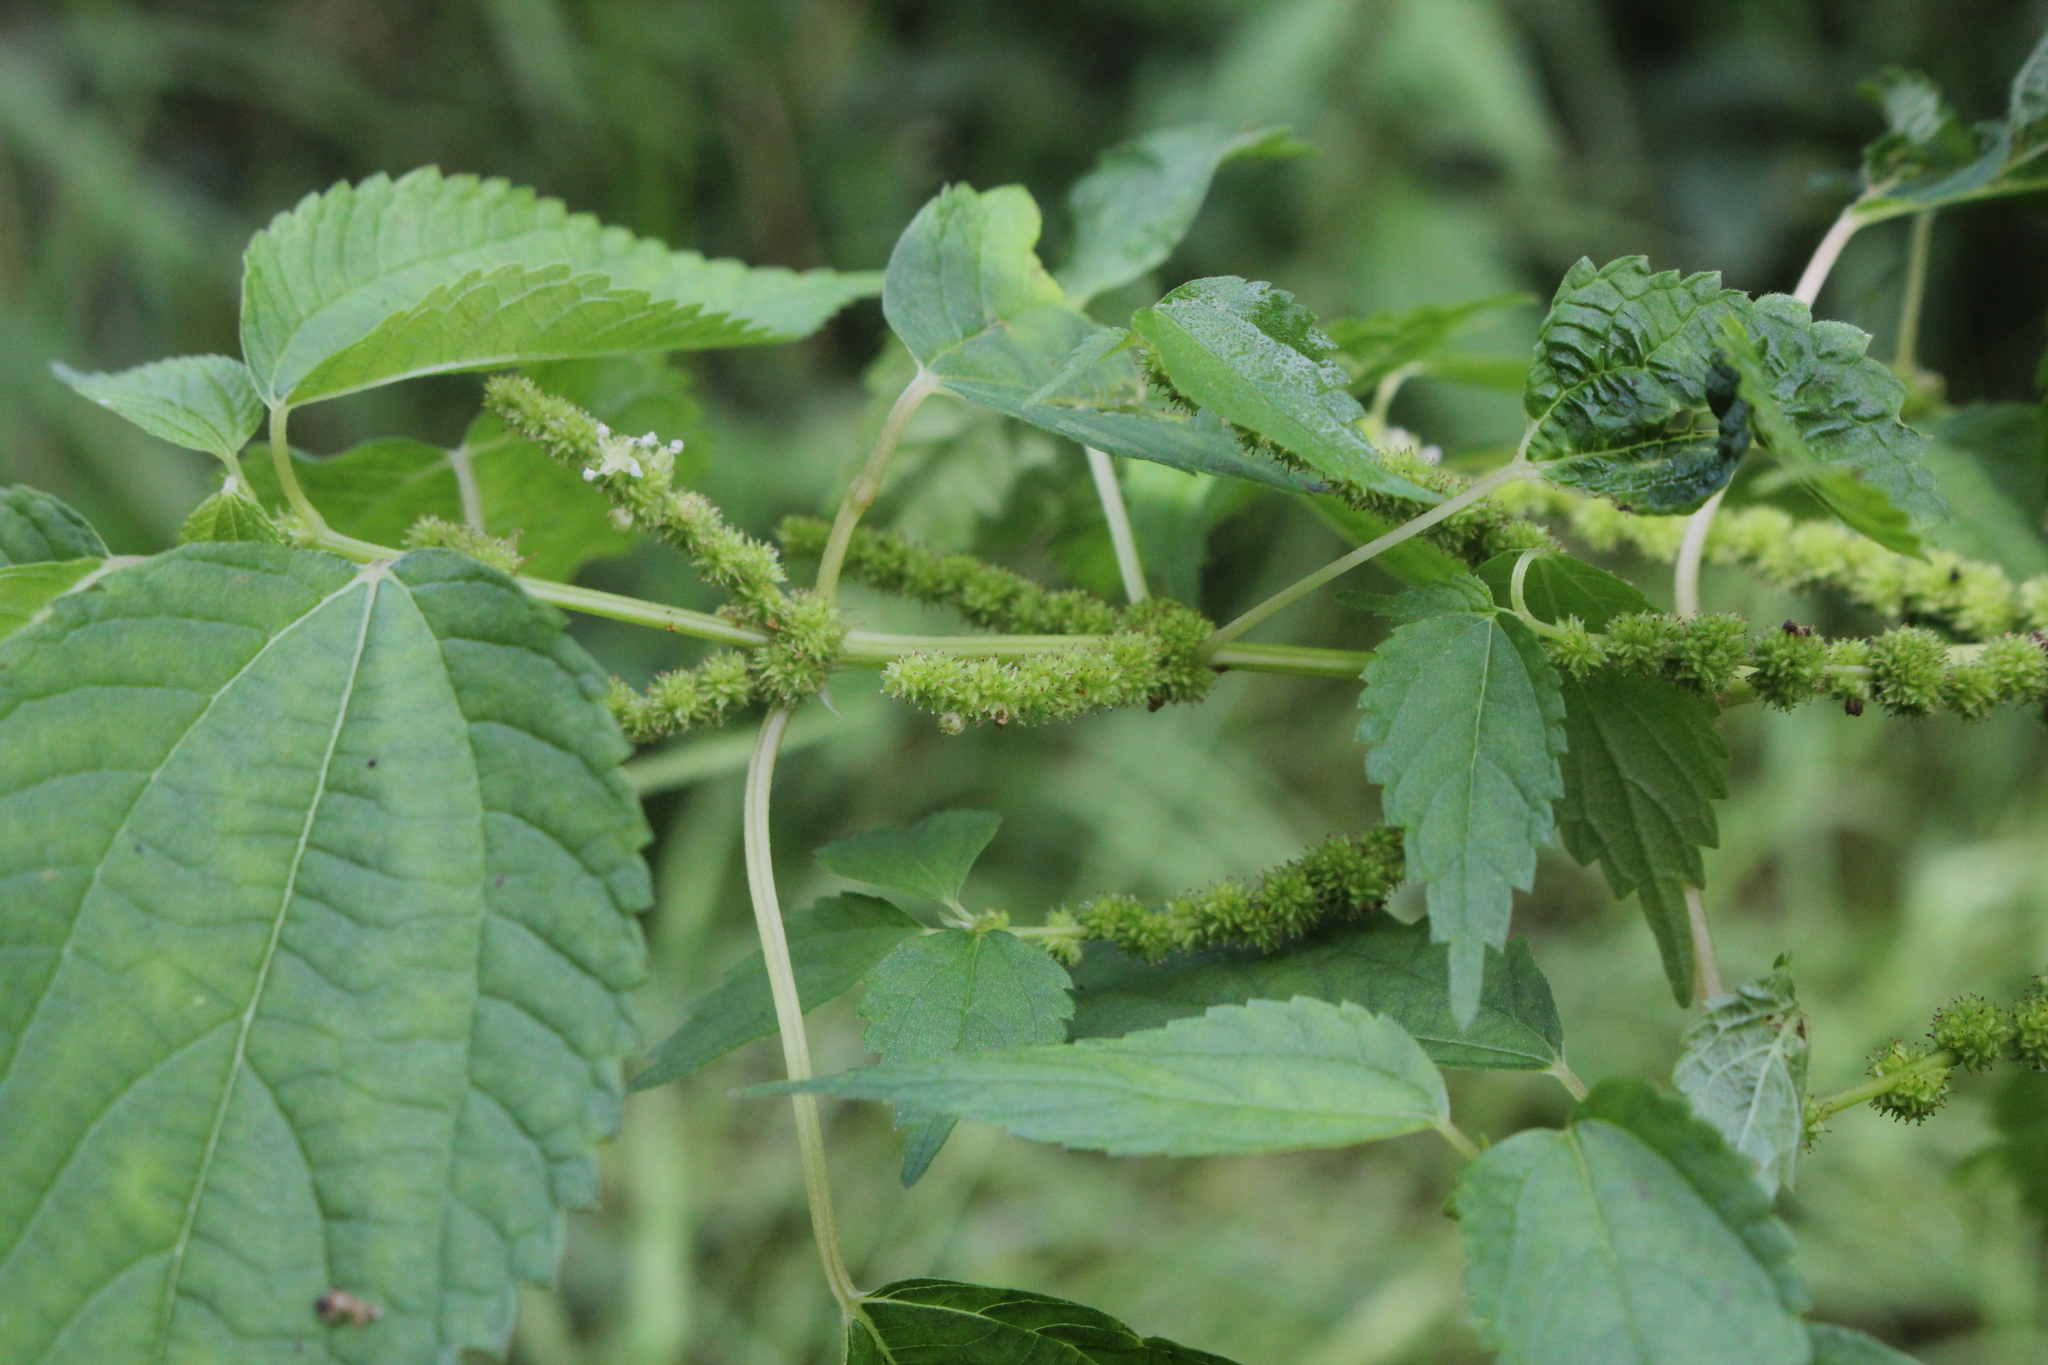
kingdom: Plantae
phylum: Tracheophyta
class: Magnoliopsida
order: Rosales
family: Urticaceae
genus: Boehmeria
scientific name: Boehmeria cylindrica
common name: Bog-hemp
